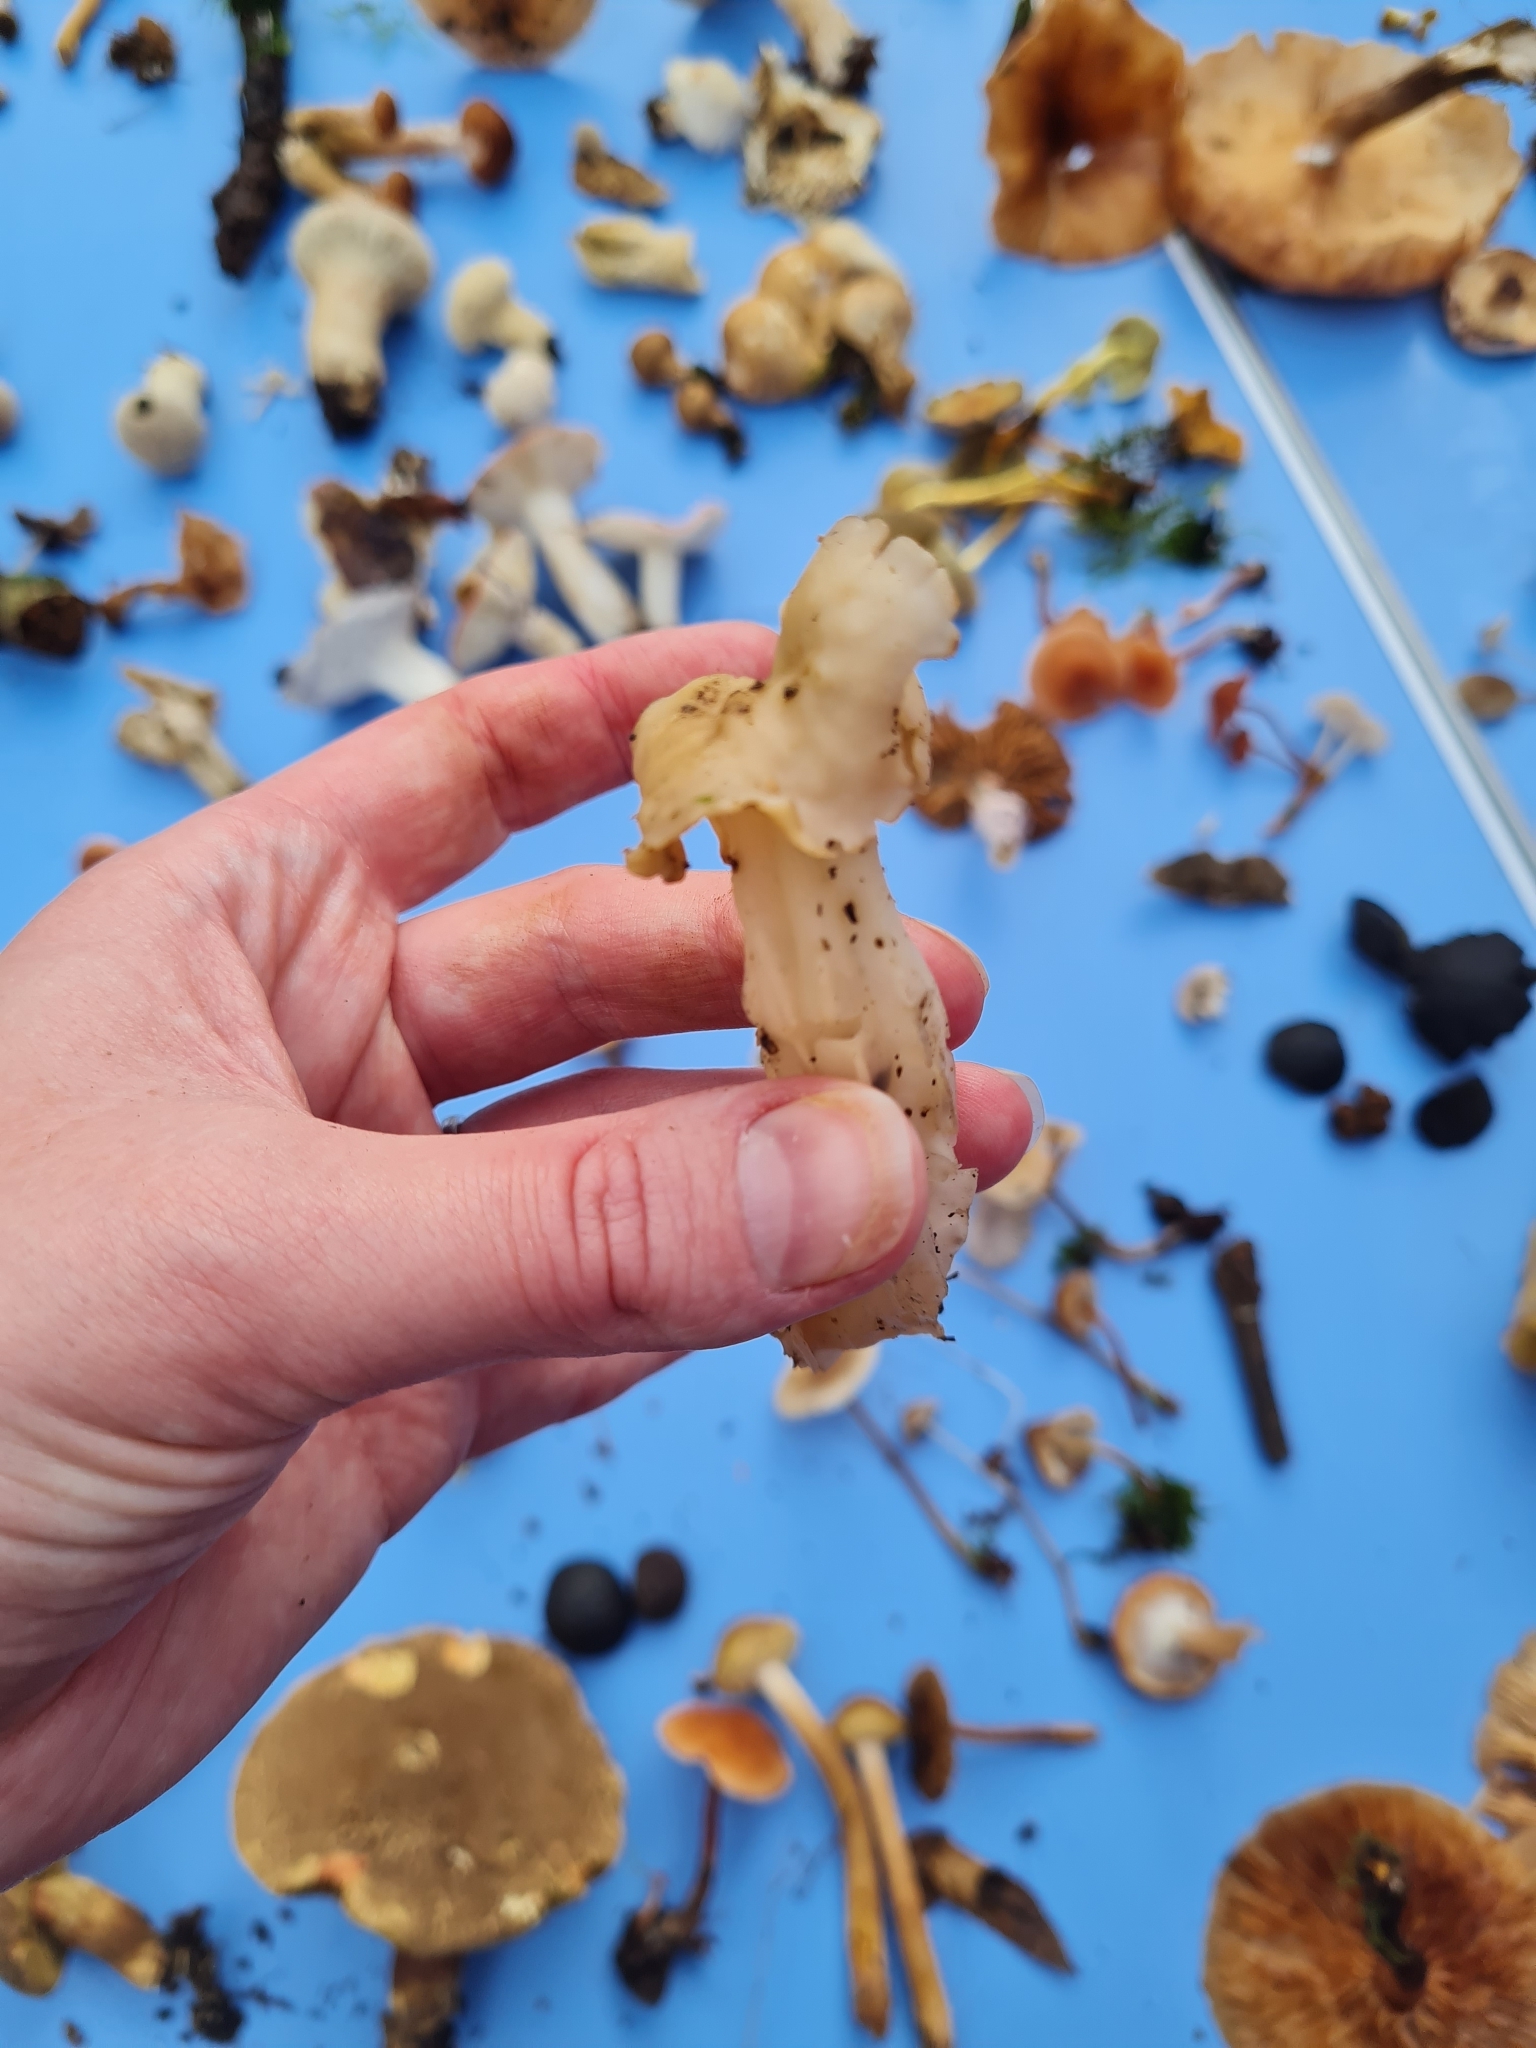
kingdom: Fungi
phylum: Ascomycota
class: Pezizomycetes
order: Pezizales
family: Helvellaceae
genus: Helvella
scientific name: Helvella crispa
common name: White saddle
